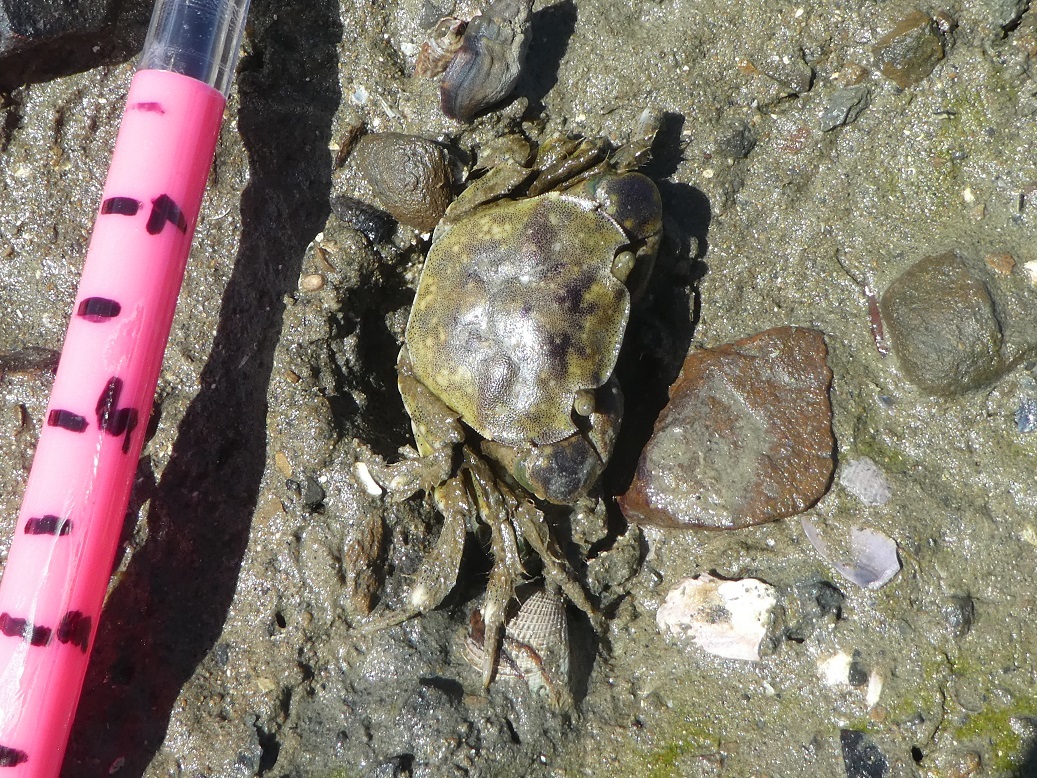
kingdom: Animalia
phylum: Arthropoda
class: Malacostraca
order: Decapoda
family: Varunidae
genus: Hemigrapsus
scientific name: Hemigrapsus crenulatus
